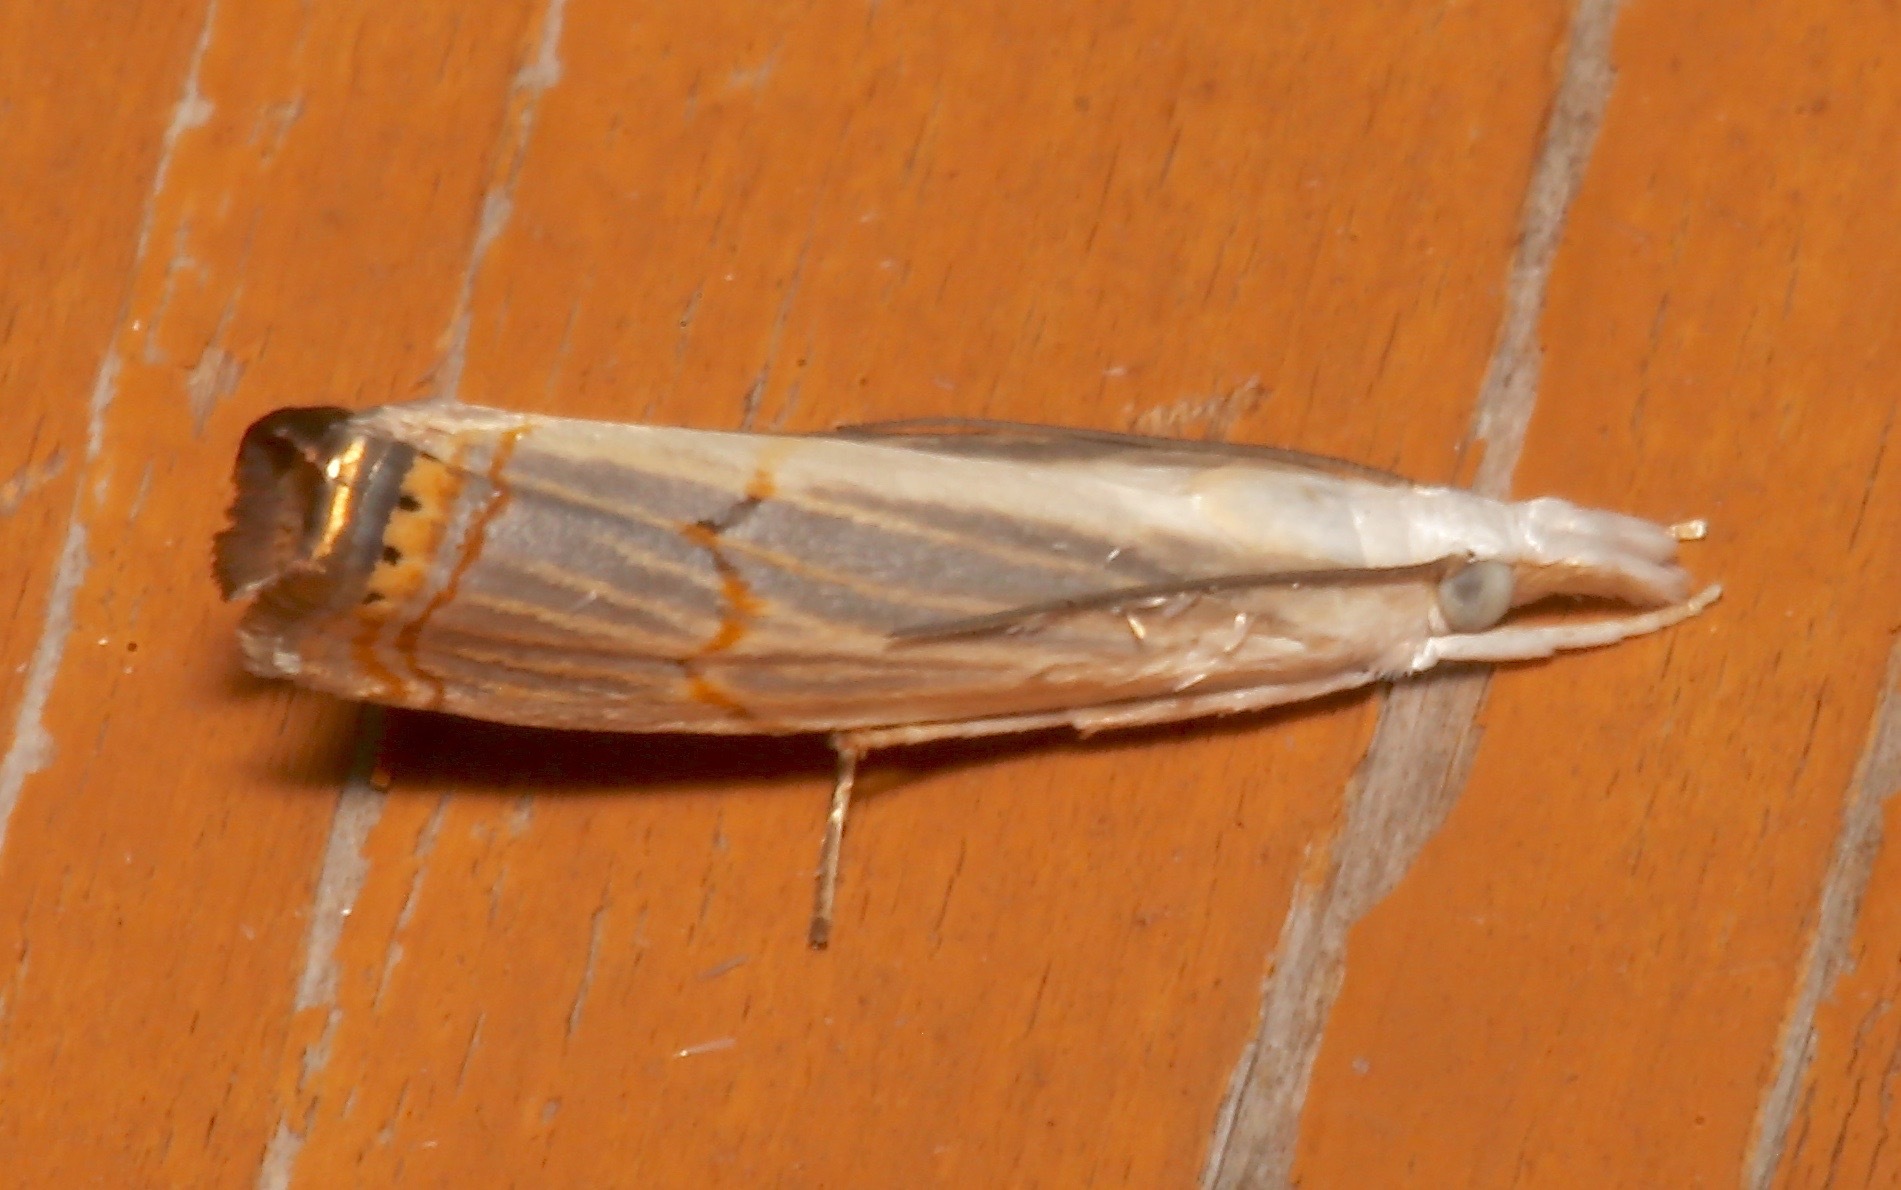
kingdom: Animalia
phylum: Arthropoda
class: Insecta
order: Lepidoptera
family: Crambidae
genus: Parapediasia
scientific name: Parapediasia decorellus
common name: Graceful grass-veneer
